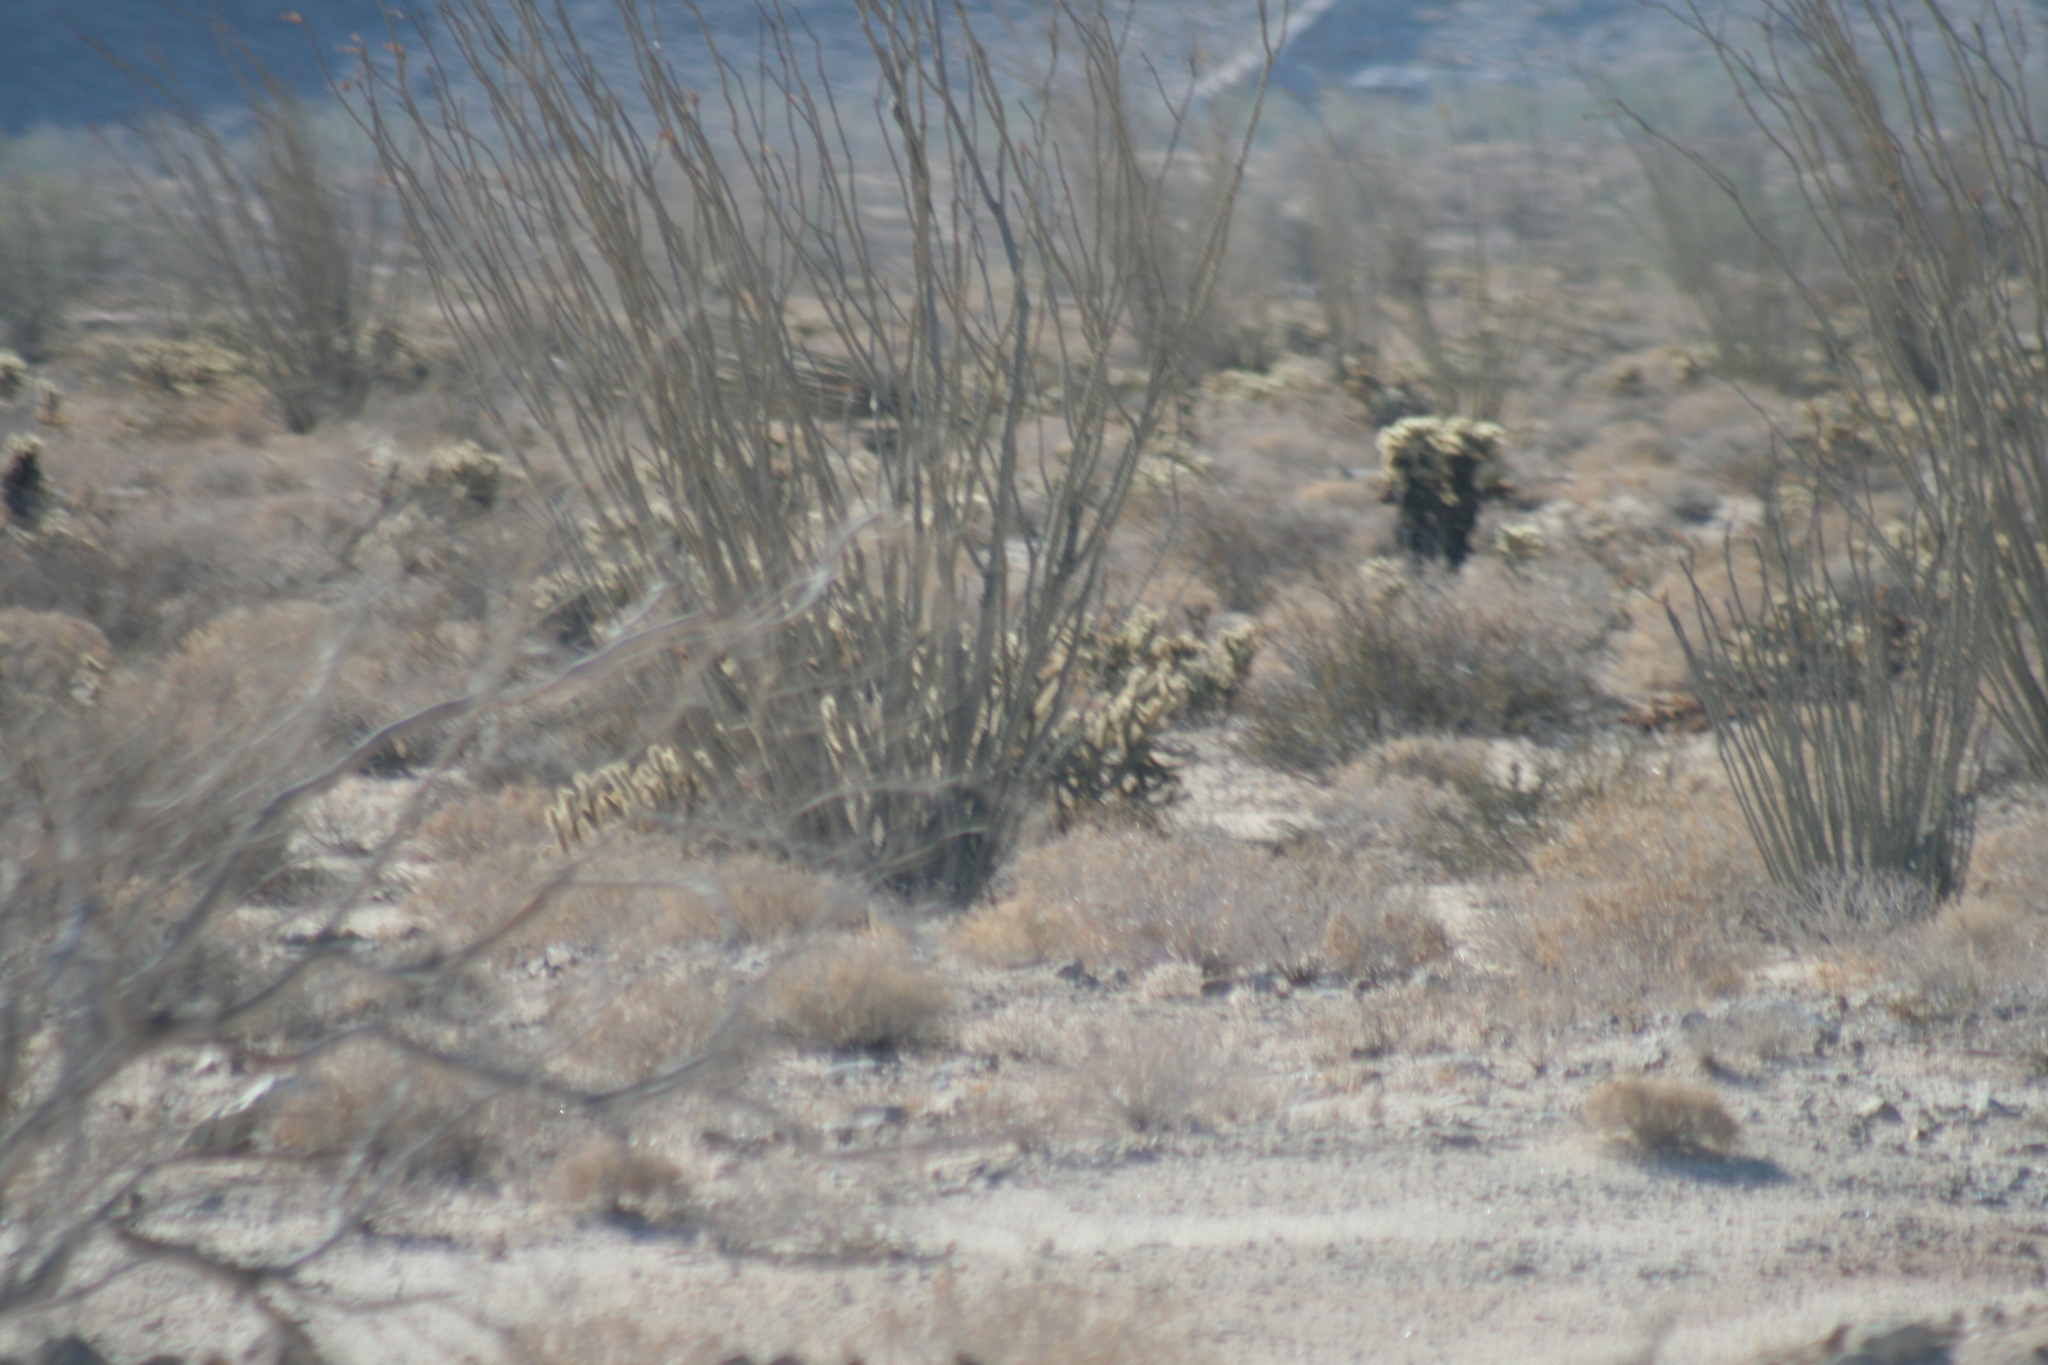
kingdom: Plantae
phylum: Tracheophyta
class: Magnoliopsida
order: Ericales
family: Fouquieriaceae
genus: Fouquieria
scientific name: Fouquieria splendens
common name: Vine-cactus
